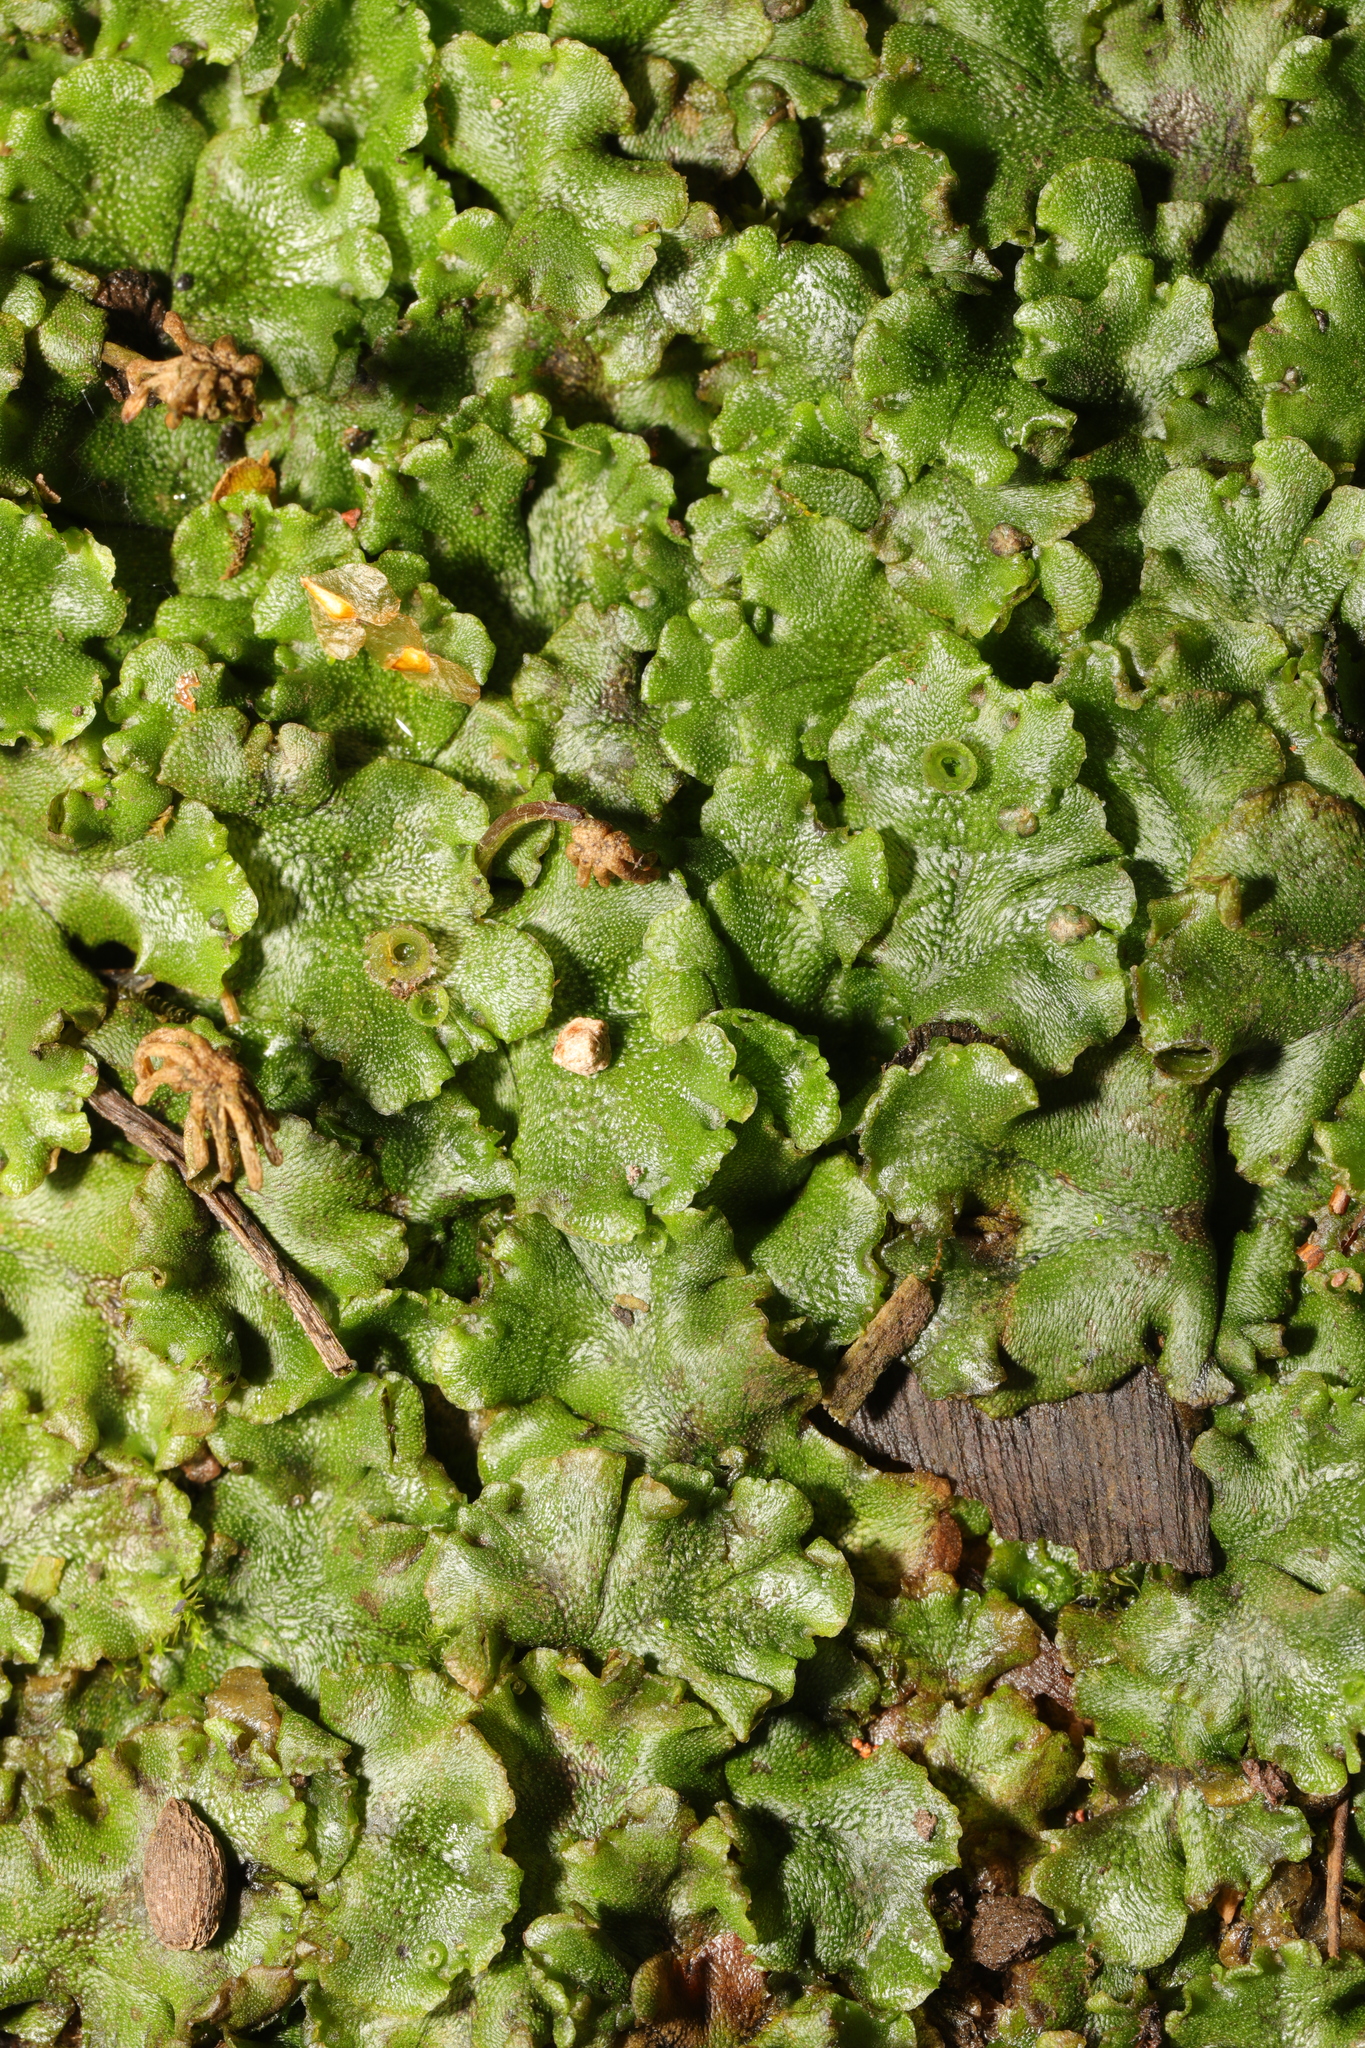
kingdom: Plantae
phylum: Marchantiophyta
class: Marchantiopsida
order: Marchantiales
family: Marchantiaceae
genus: Marchantia
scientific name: Marchantia polymorpha
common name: Common liverwort
